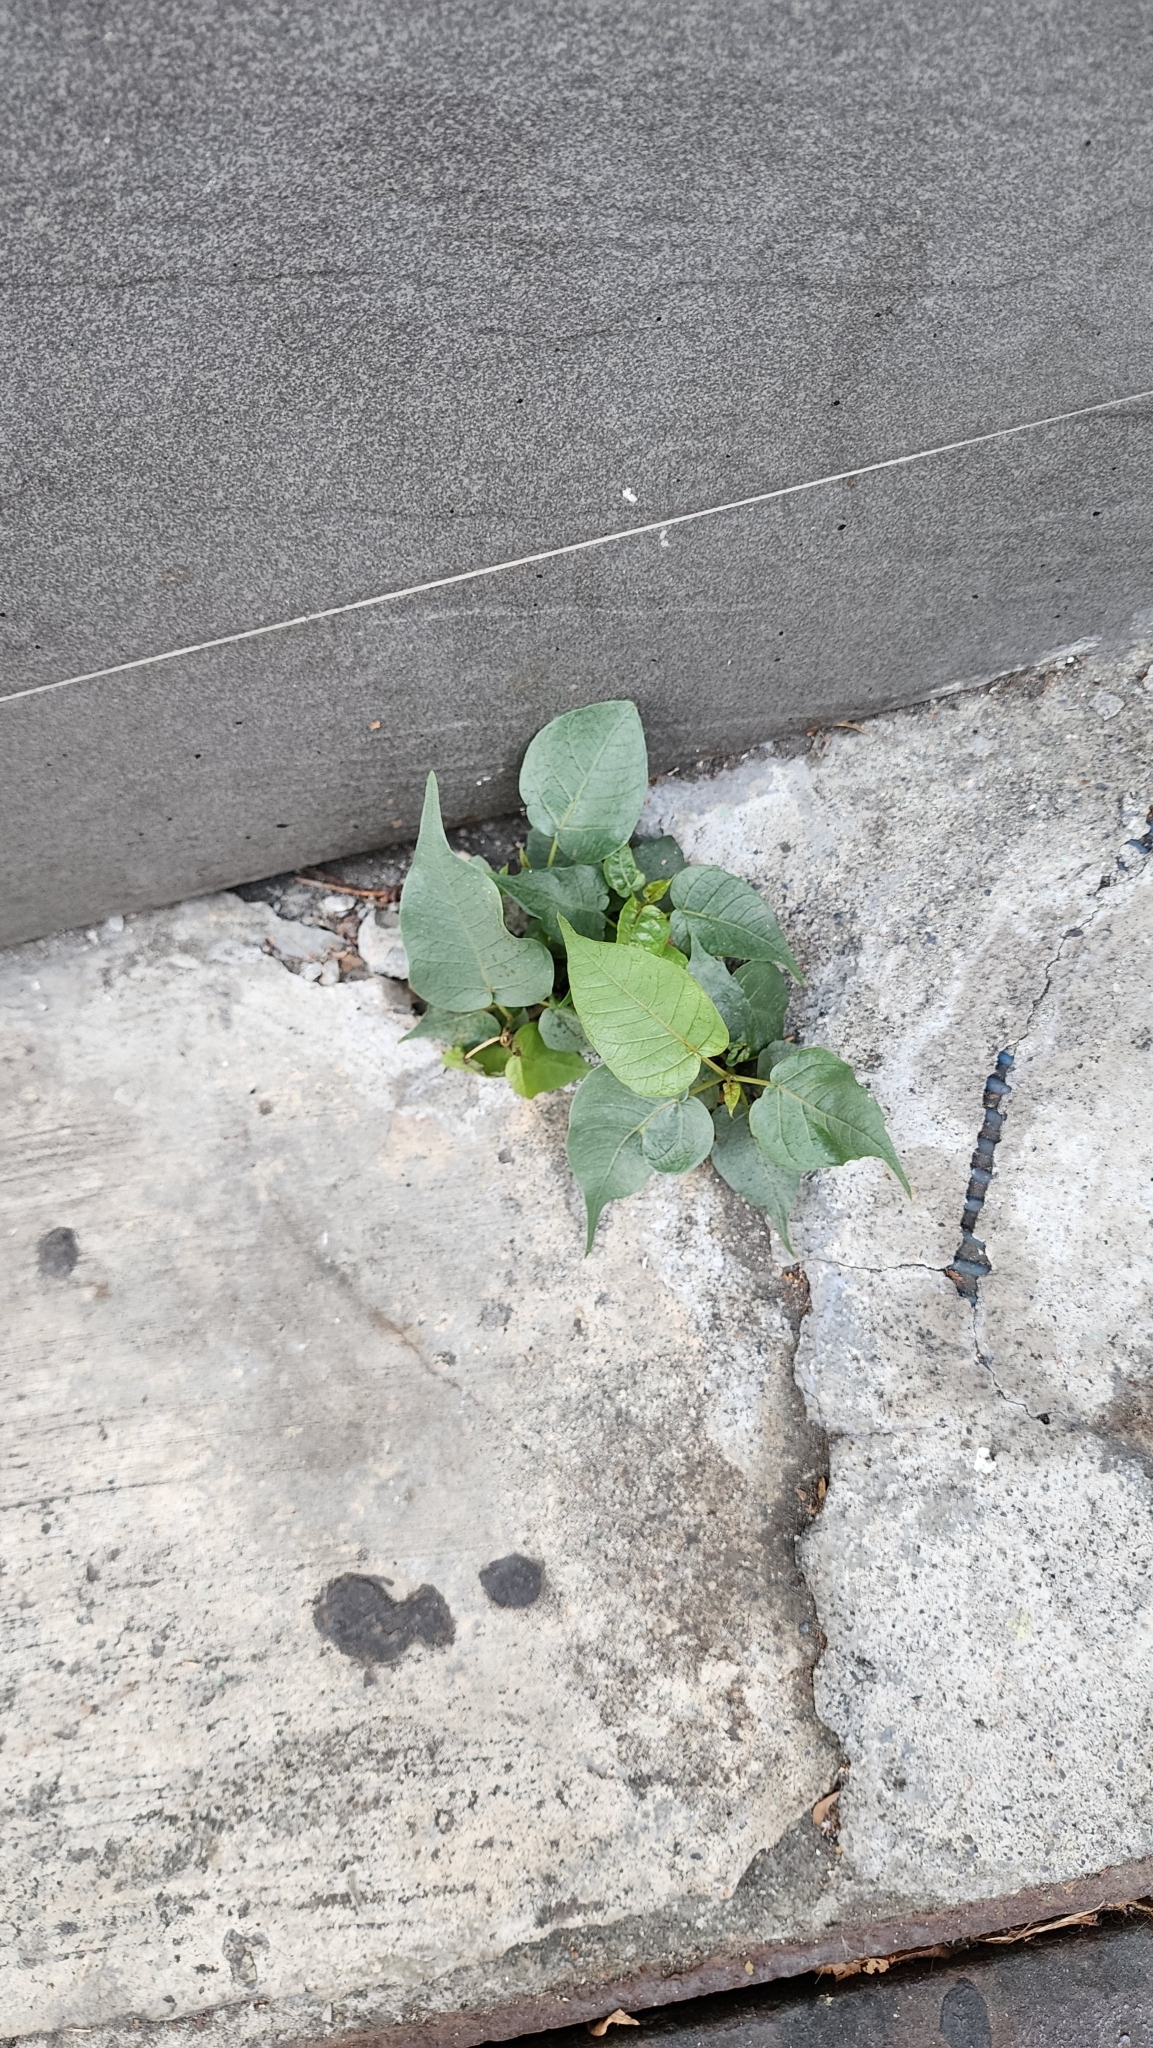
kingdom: Plantae
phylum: Tracheophyta
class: Magnoliopsida
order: Rosales
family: Moraceae
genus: Ficus
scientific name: Ficus religiosa
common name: Bodhi tree
